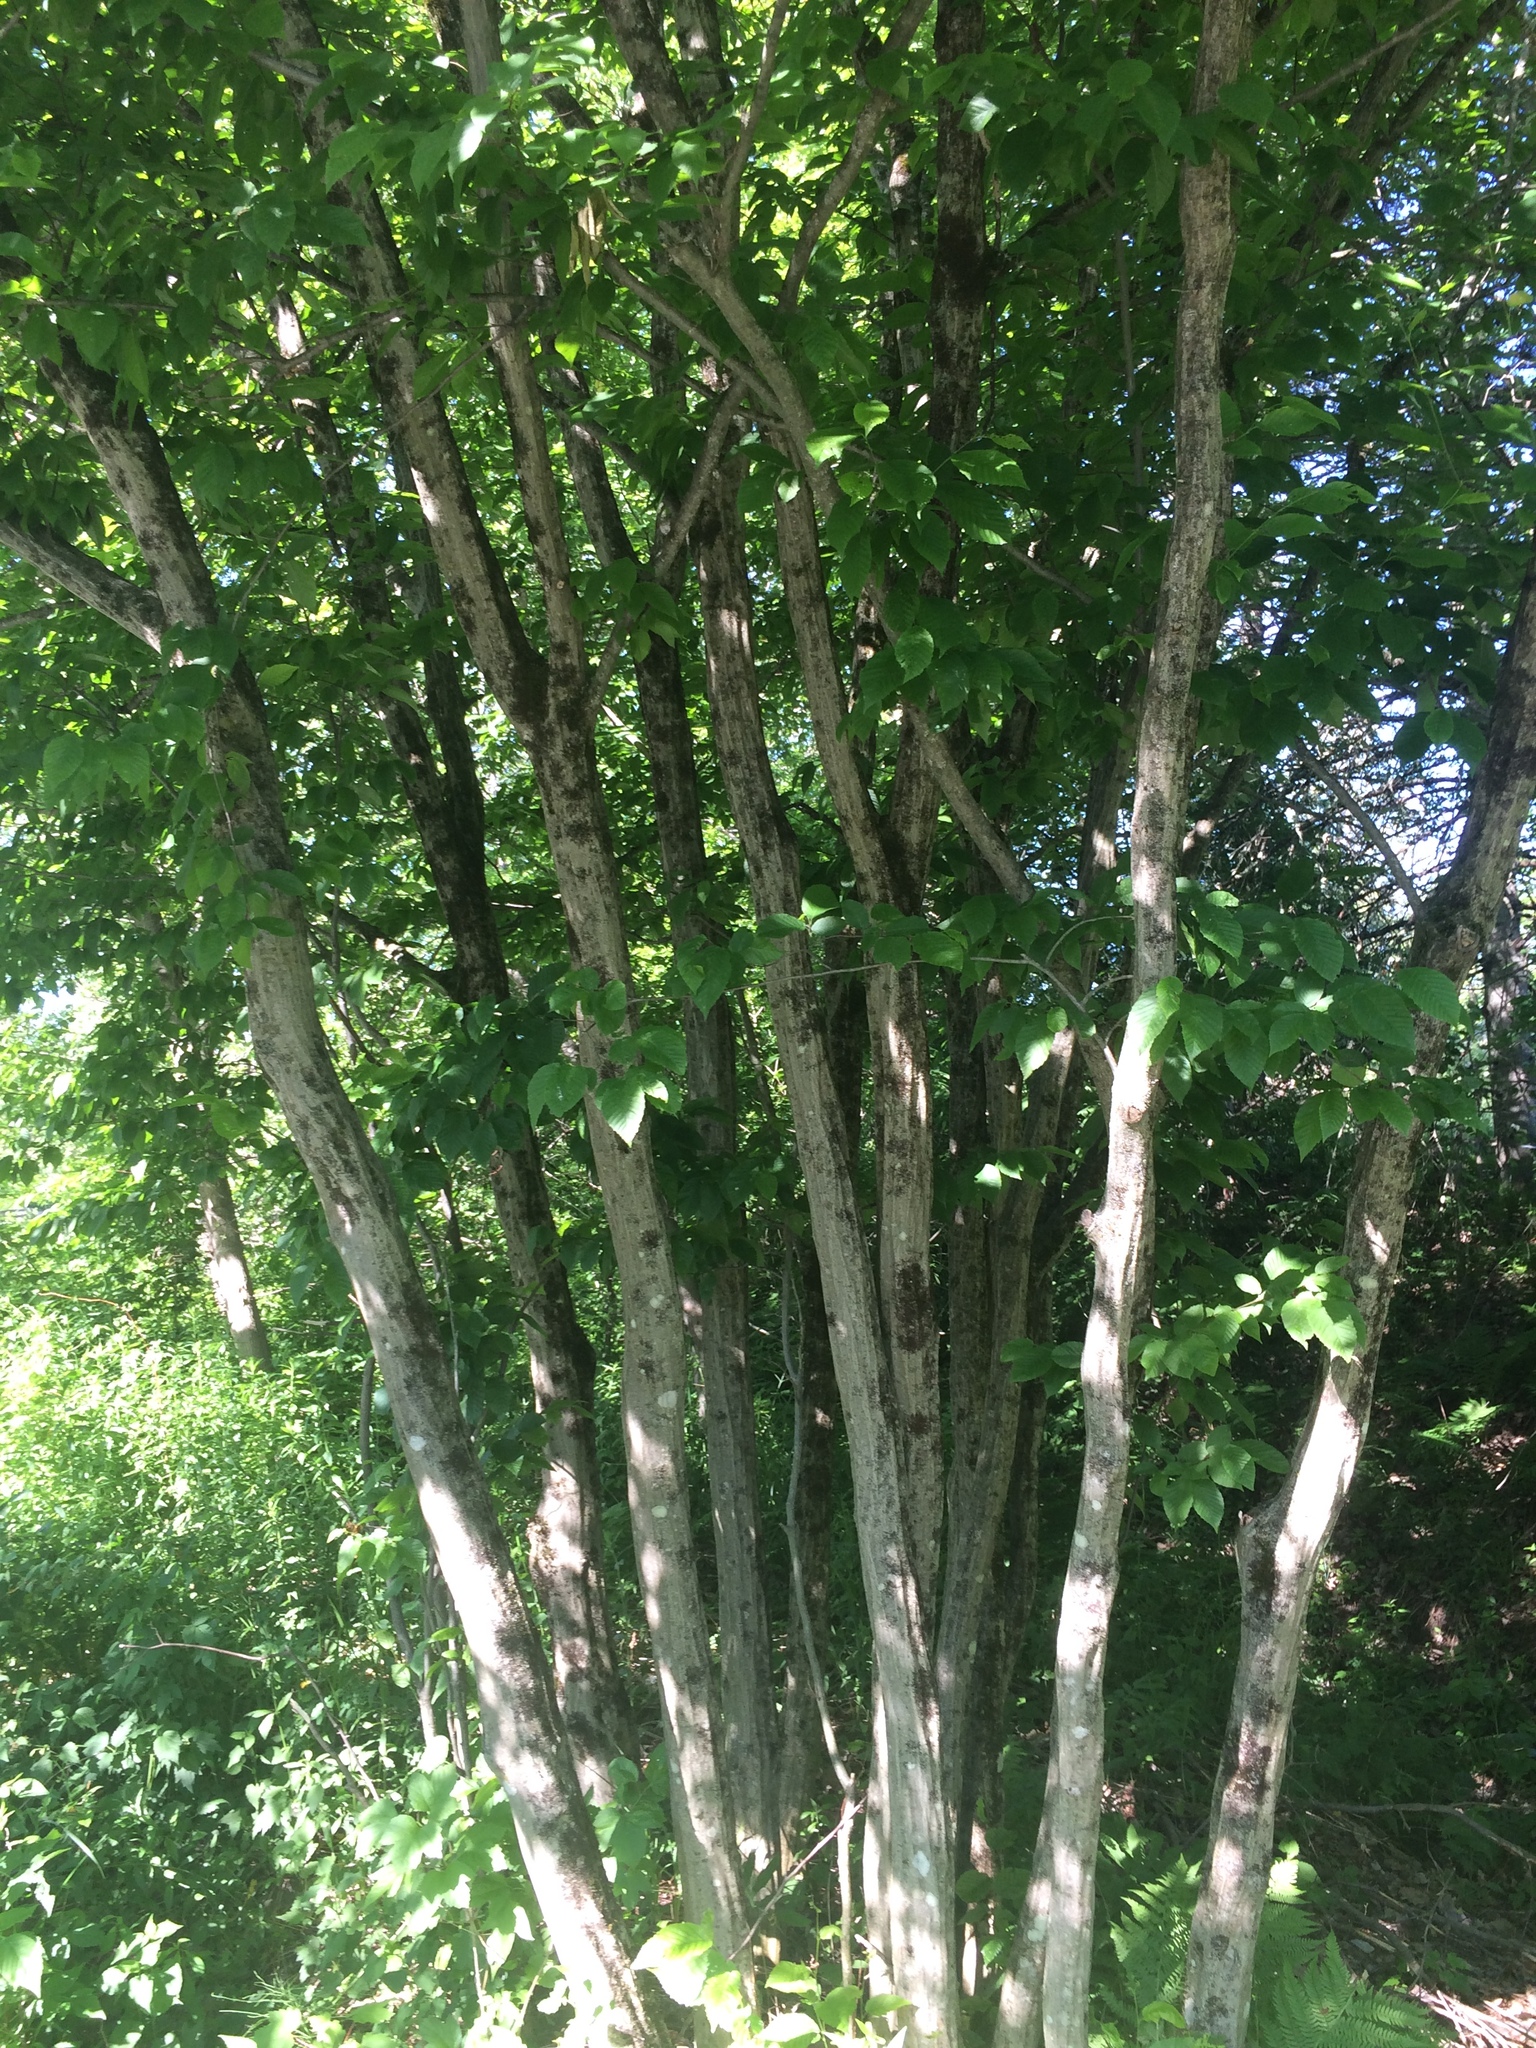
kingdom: Plantae
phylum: Tracheophyta
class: Magnoliopsida
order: Fagales
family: Betulaceae
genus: Carpinus
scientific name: Carpinus caroliniana
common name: American hornbeam
